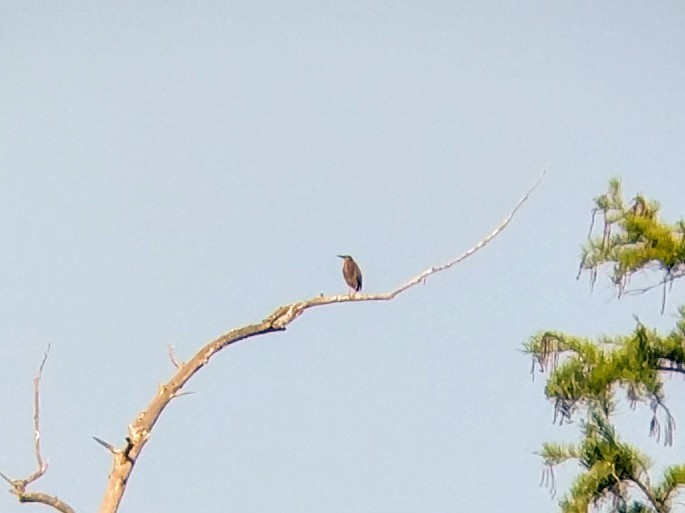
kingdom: Animalia
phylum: Chordata
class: Aves
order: Pelecaniformes
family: Ardeidae
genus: Butorides
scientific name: Butorides virescens
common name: Green heron
